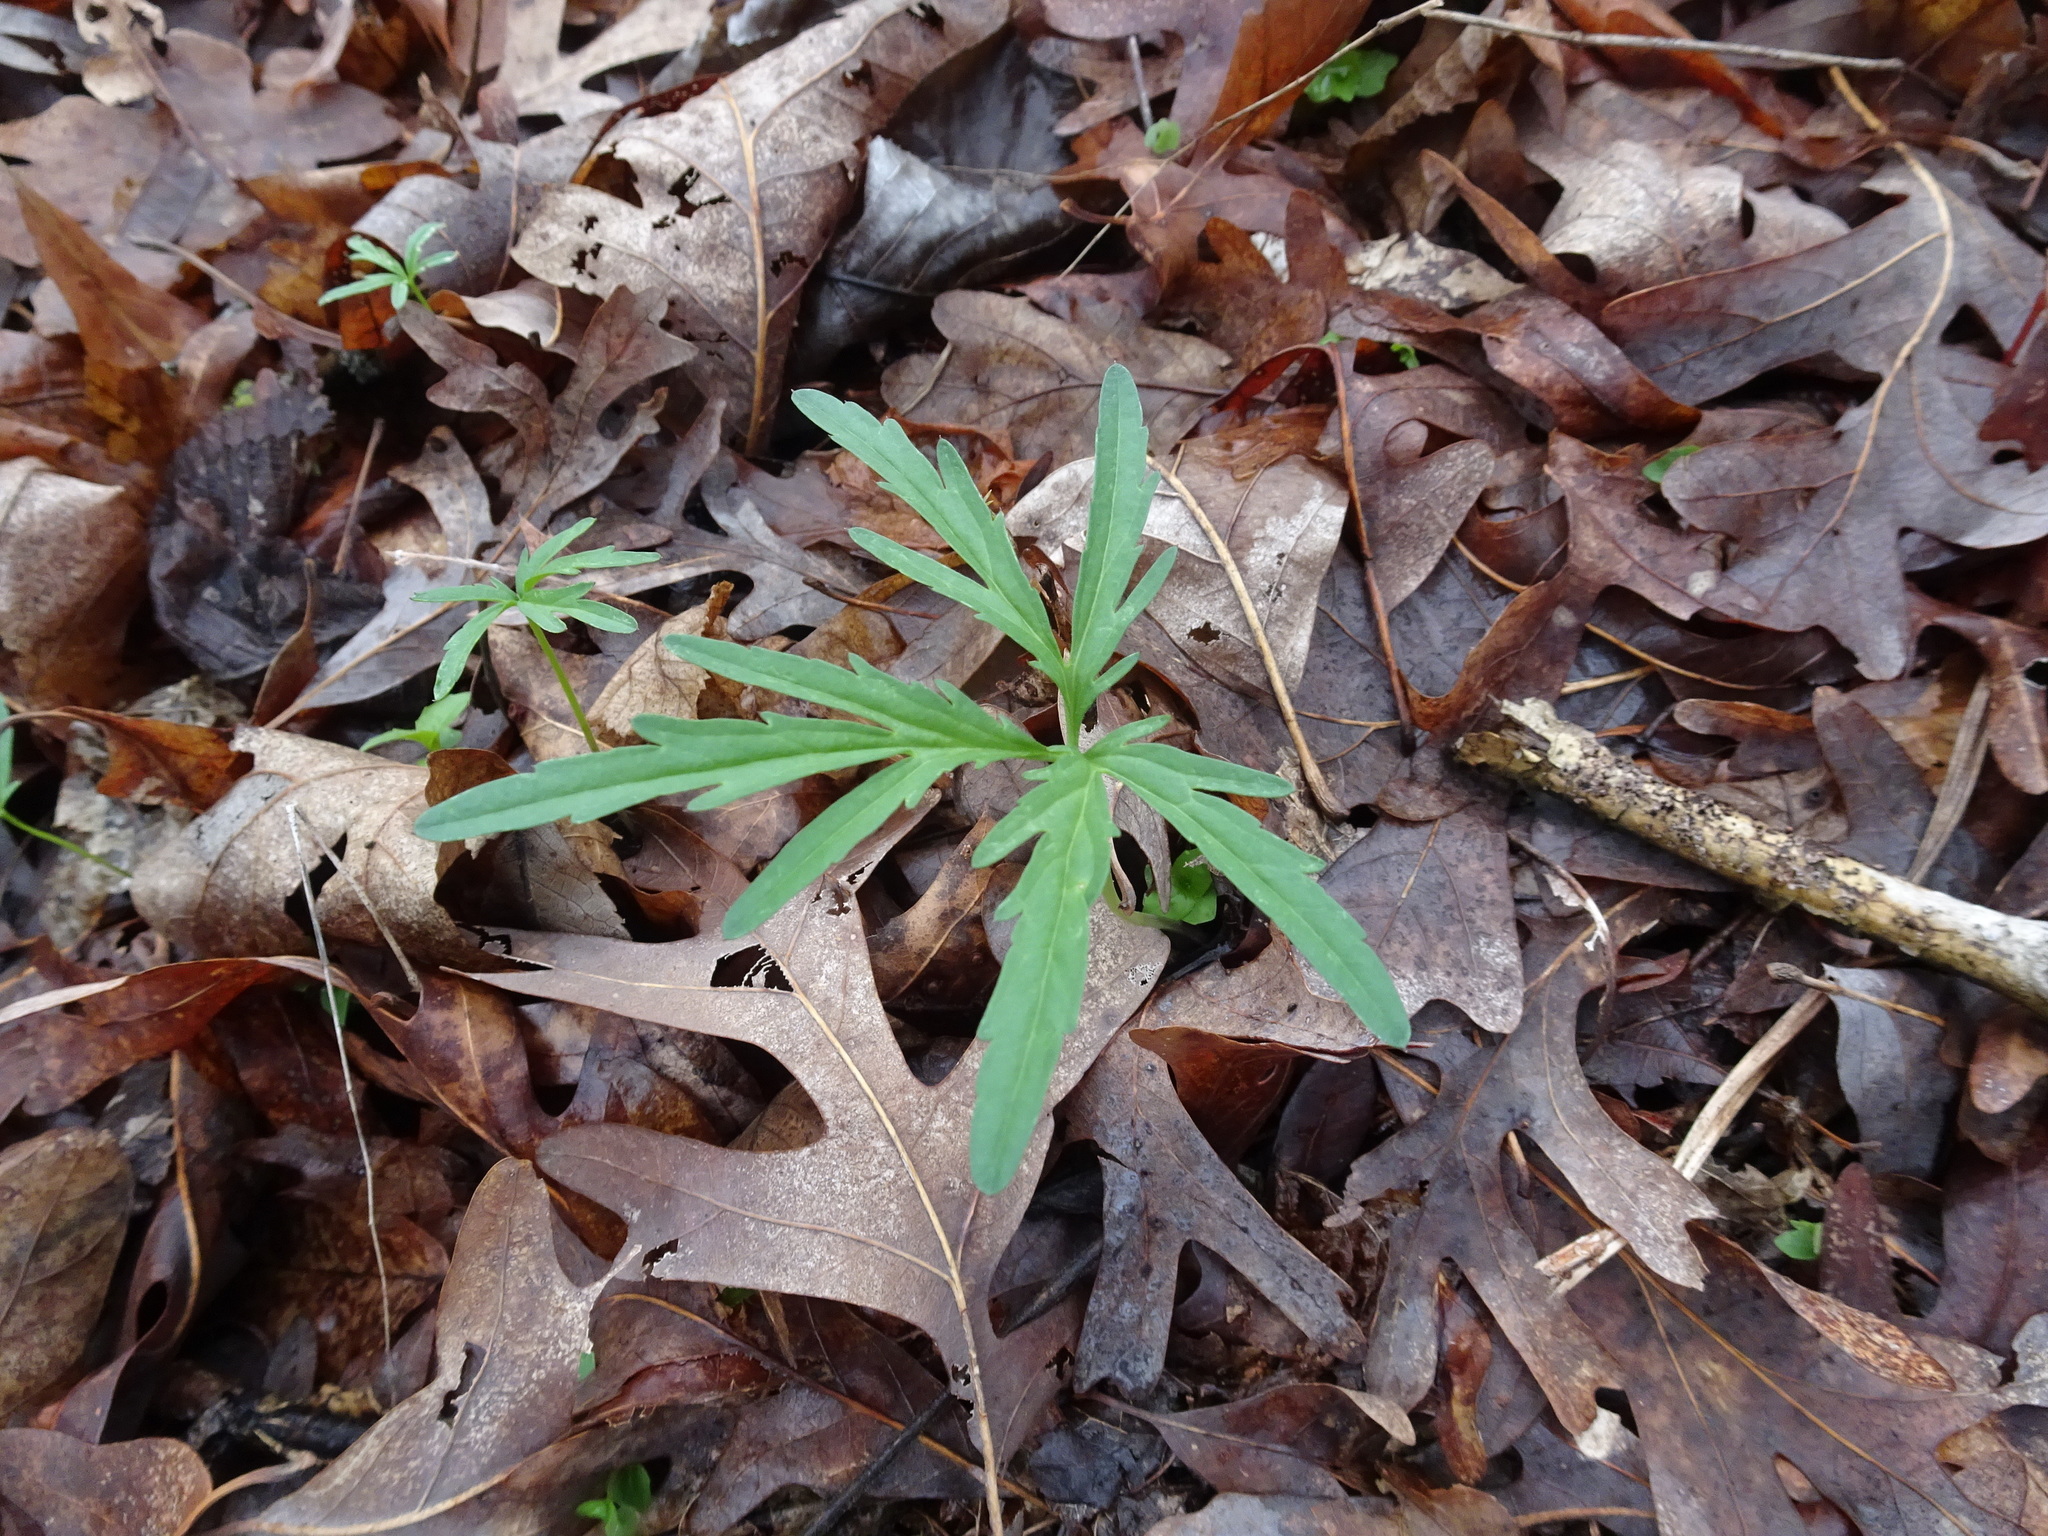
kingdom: Plantae
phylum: Tracheophyta
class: Magnoliopsida
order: Brassicales
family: Brassicaceae
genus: Cardamine
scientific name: Cardamine concatenata
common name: Cut-leaf toothcup
